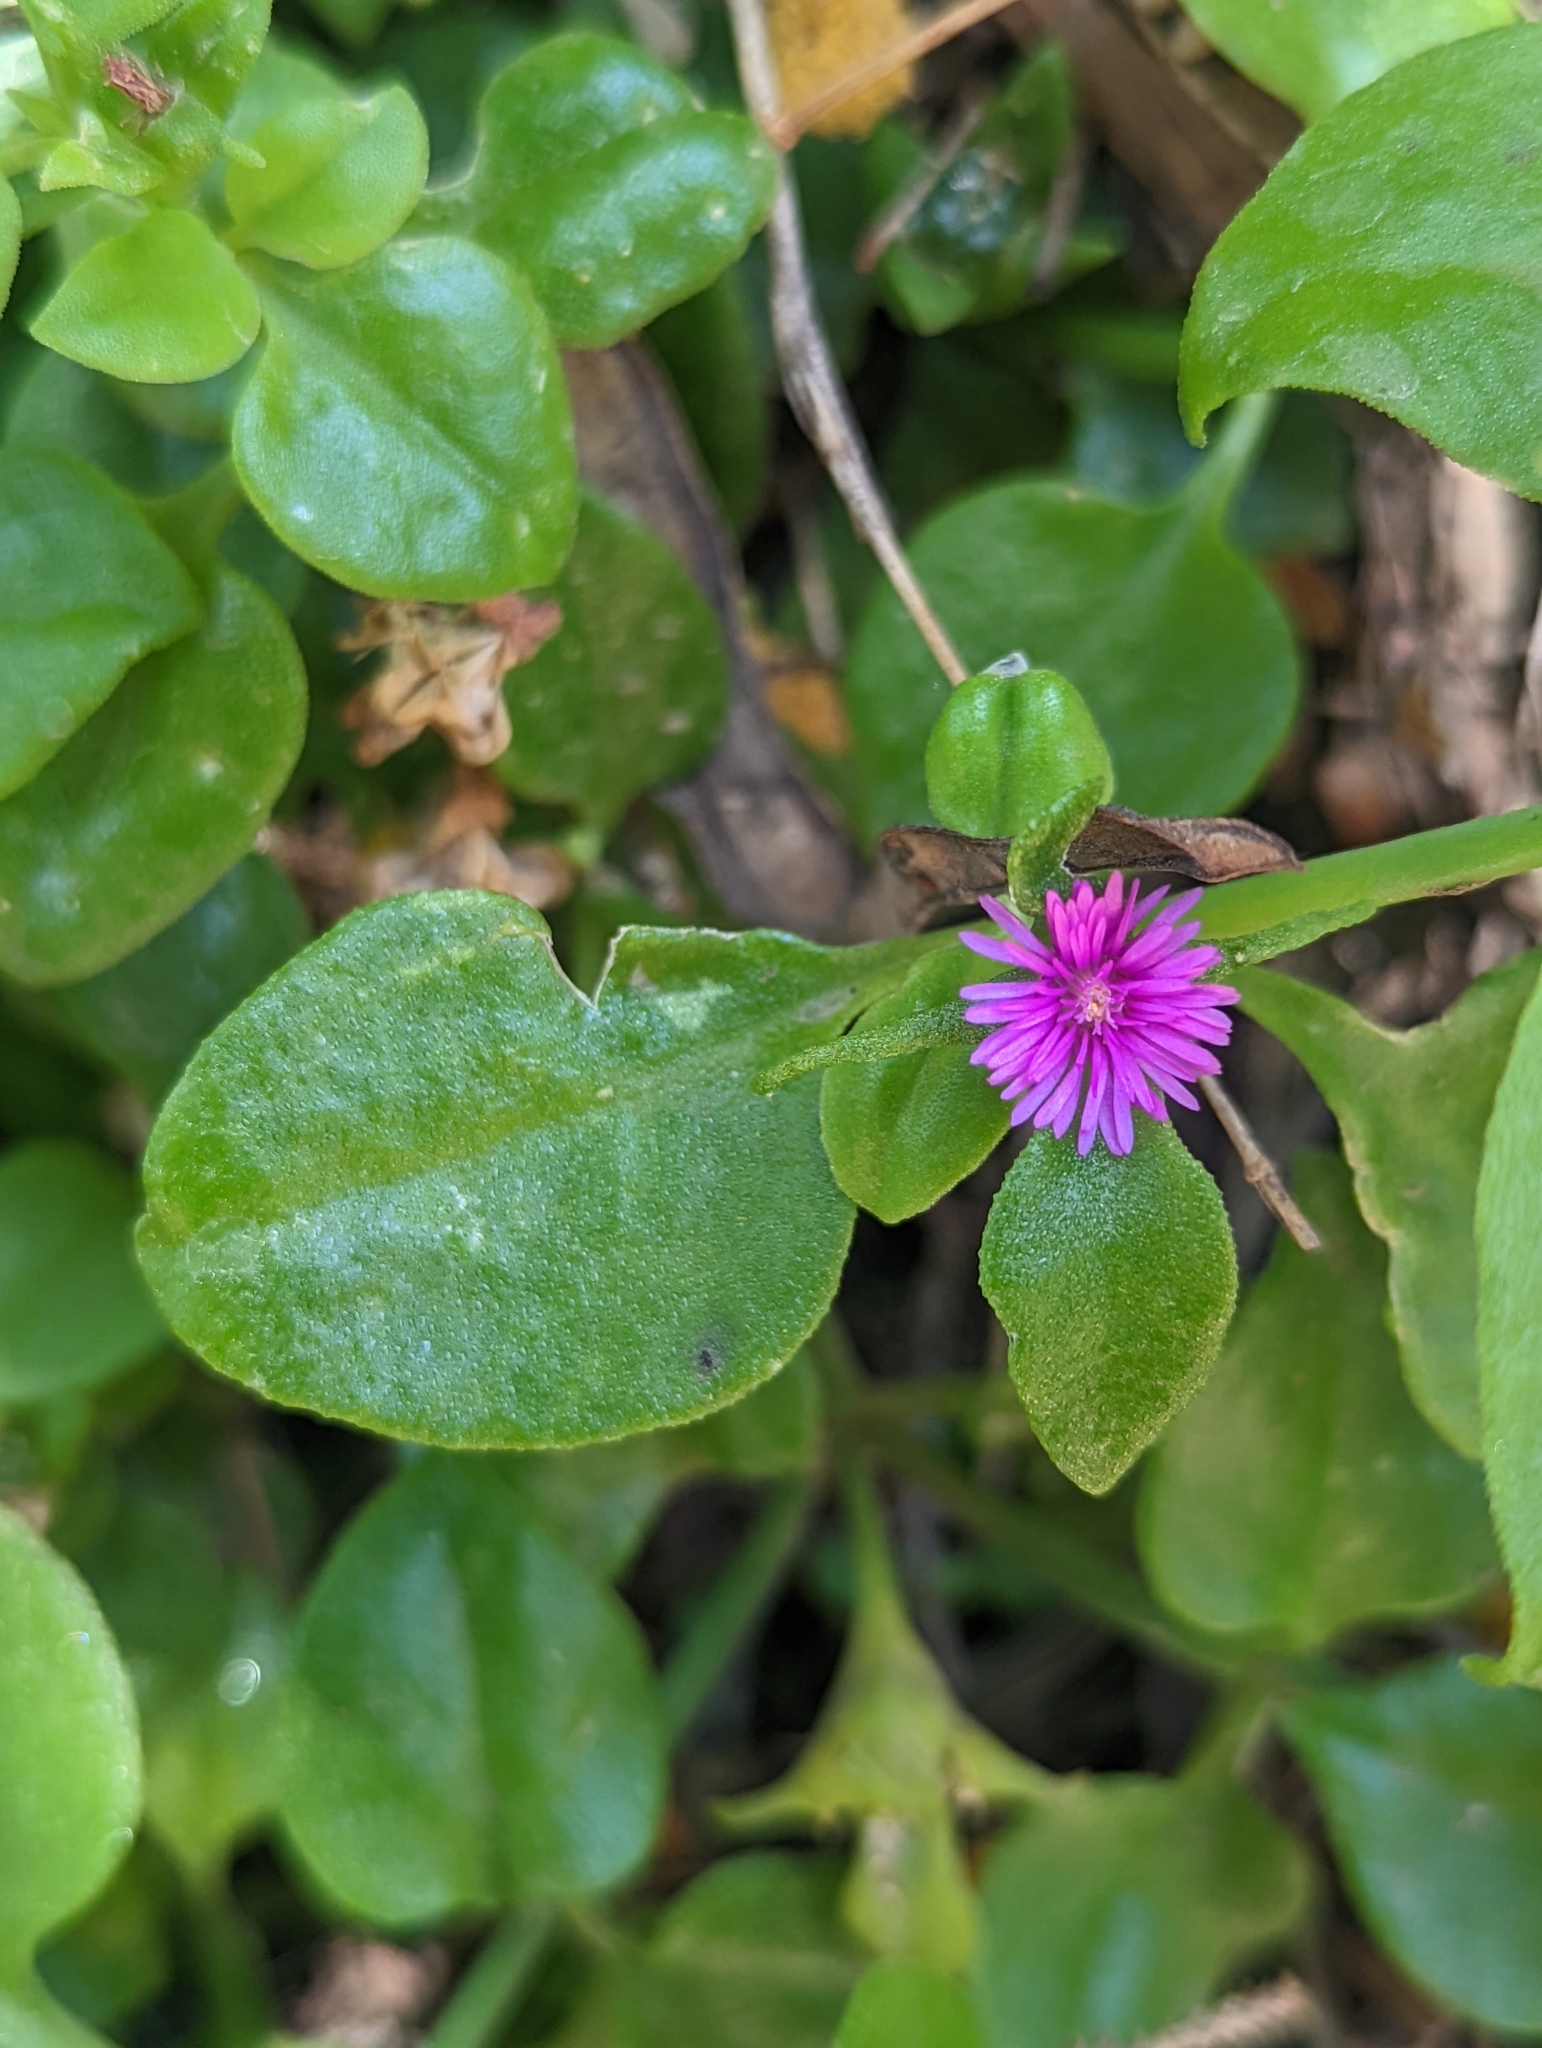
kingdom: Plantae
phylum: Tracheophyta
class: Magnoliopsida
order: Caryophyllales
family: Aizoaceae
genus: Mesembryanthemum
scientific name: Mesembryanthemum cordifolium
